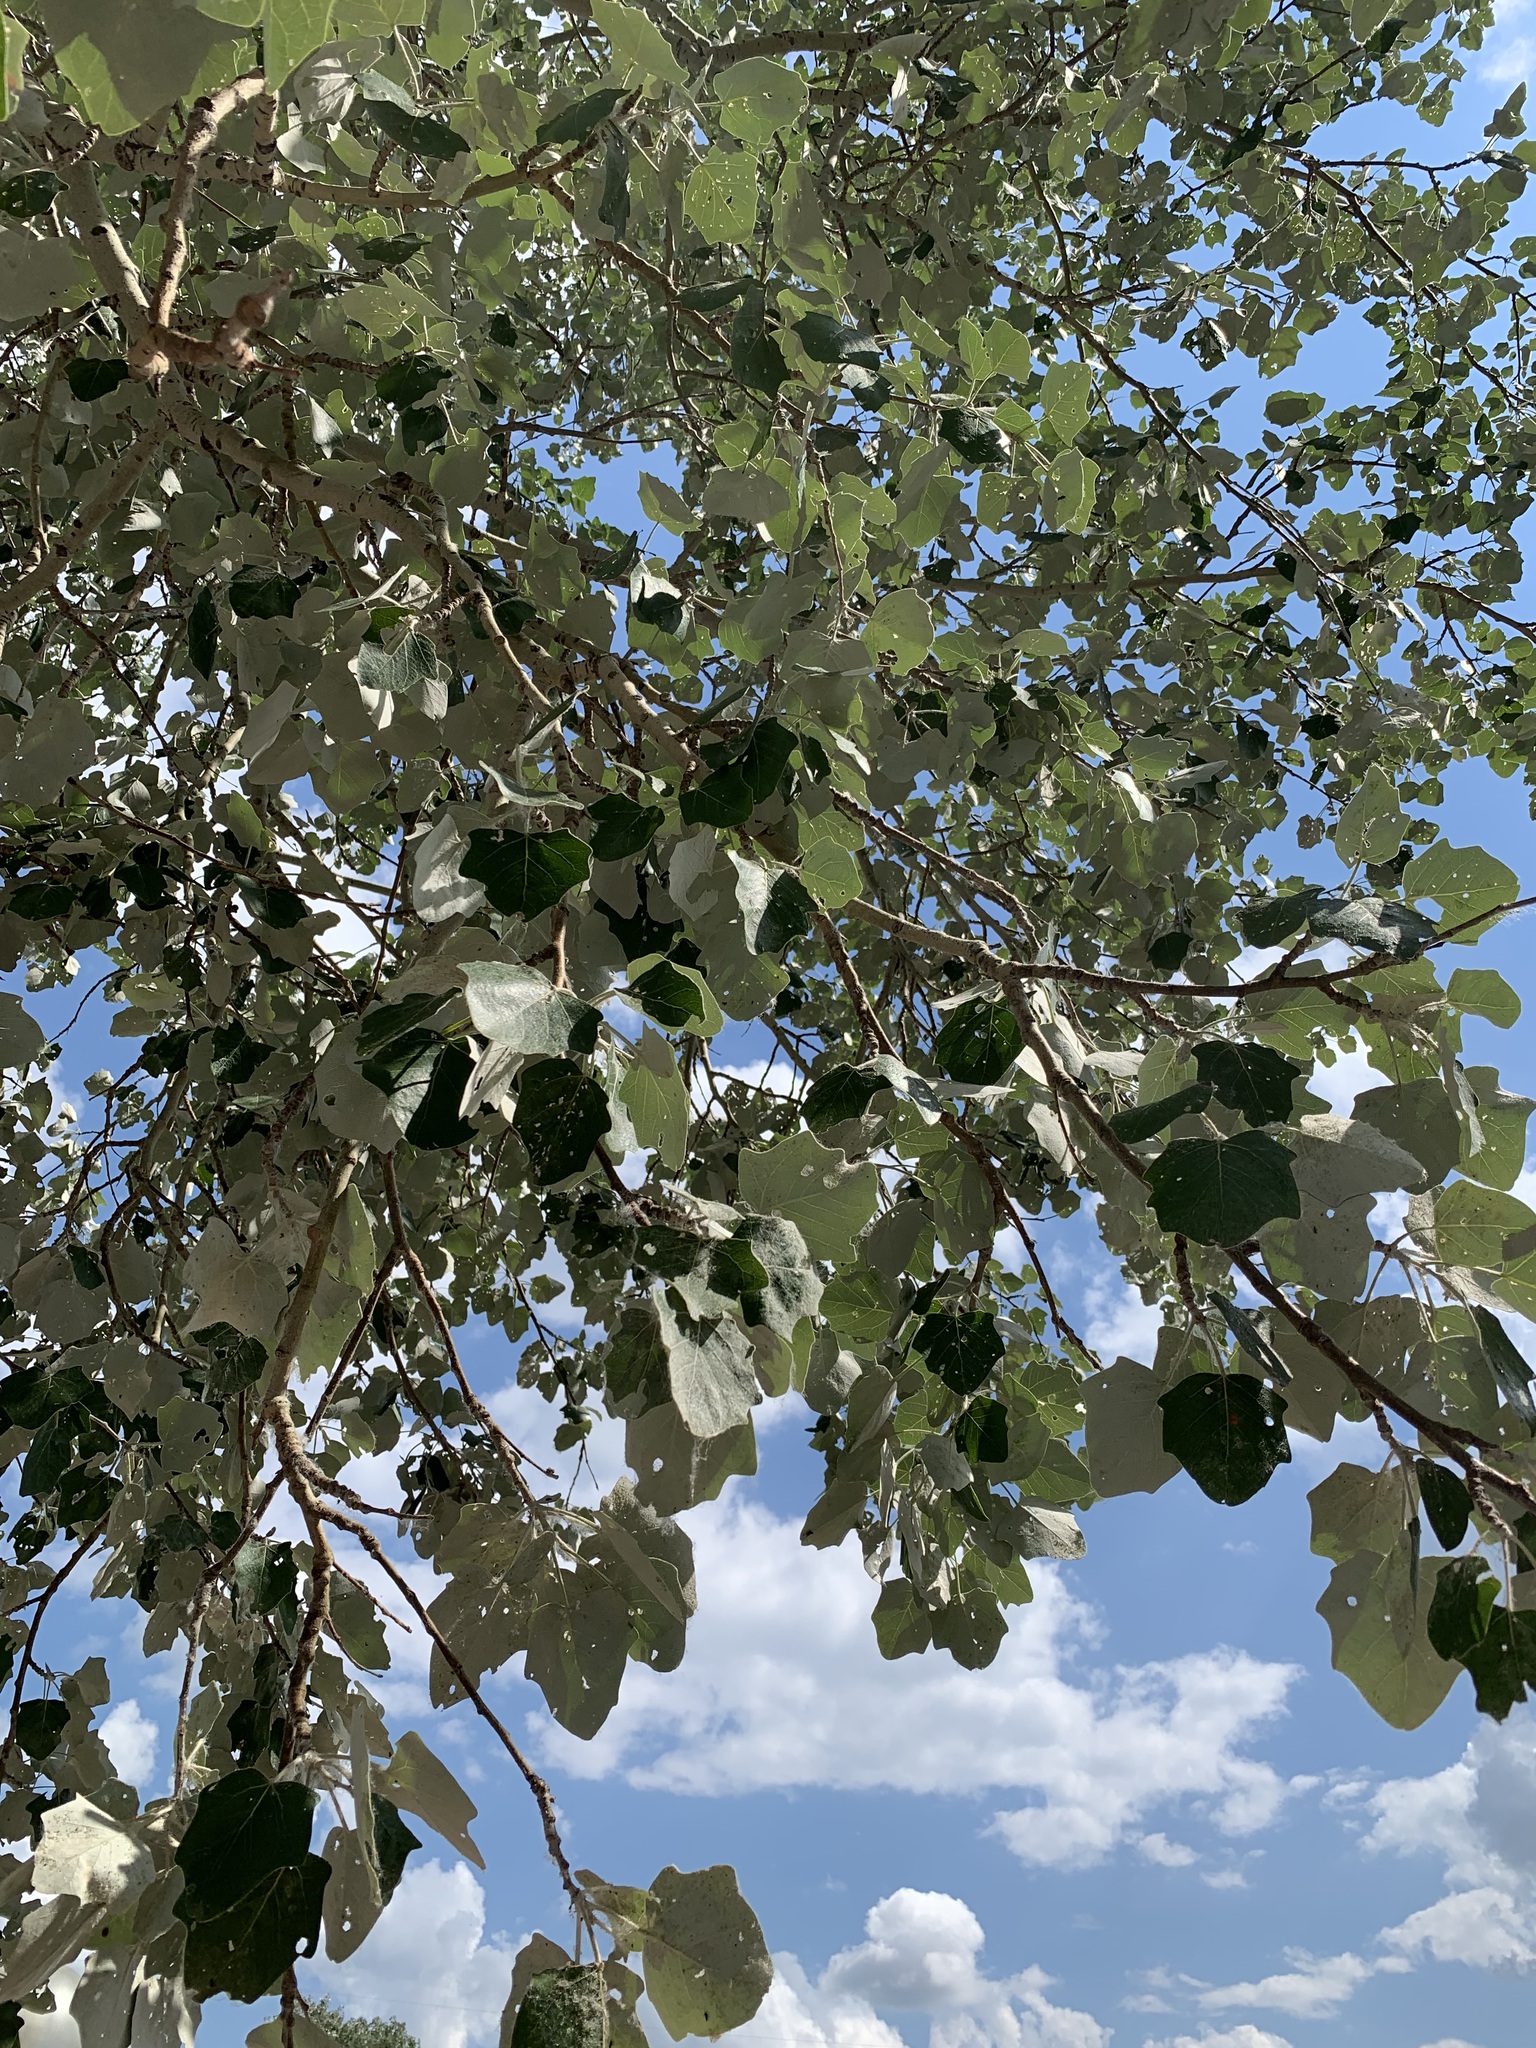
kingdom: Plantae
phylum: Tracheophyta
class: Magnoliopsida
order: Malpighiales
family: Salicaceae
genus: Populus
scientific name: Populus alba
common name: White poplar
